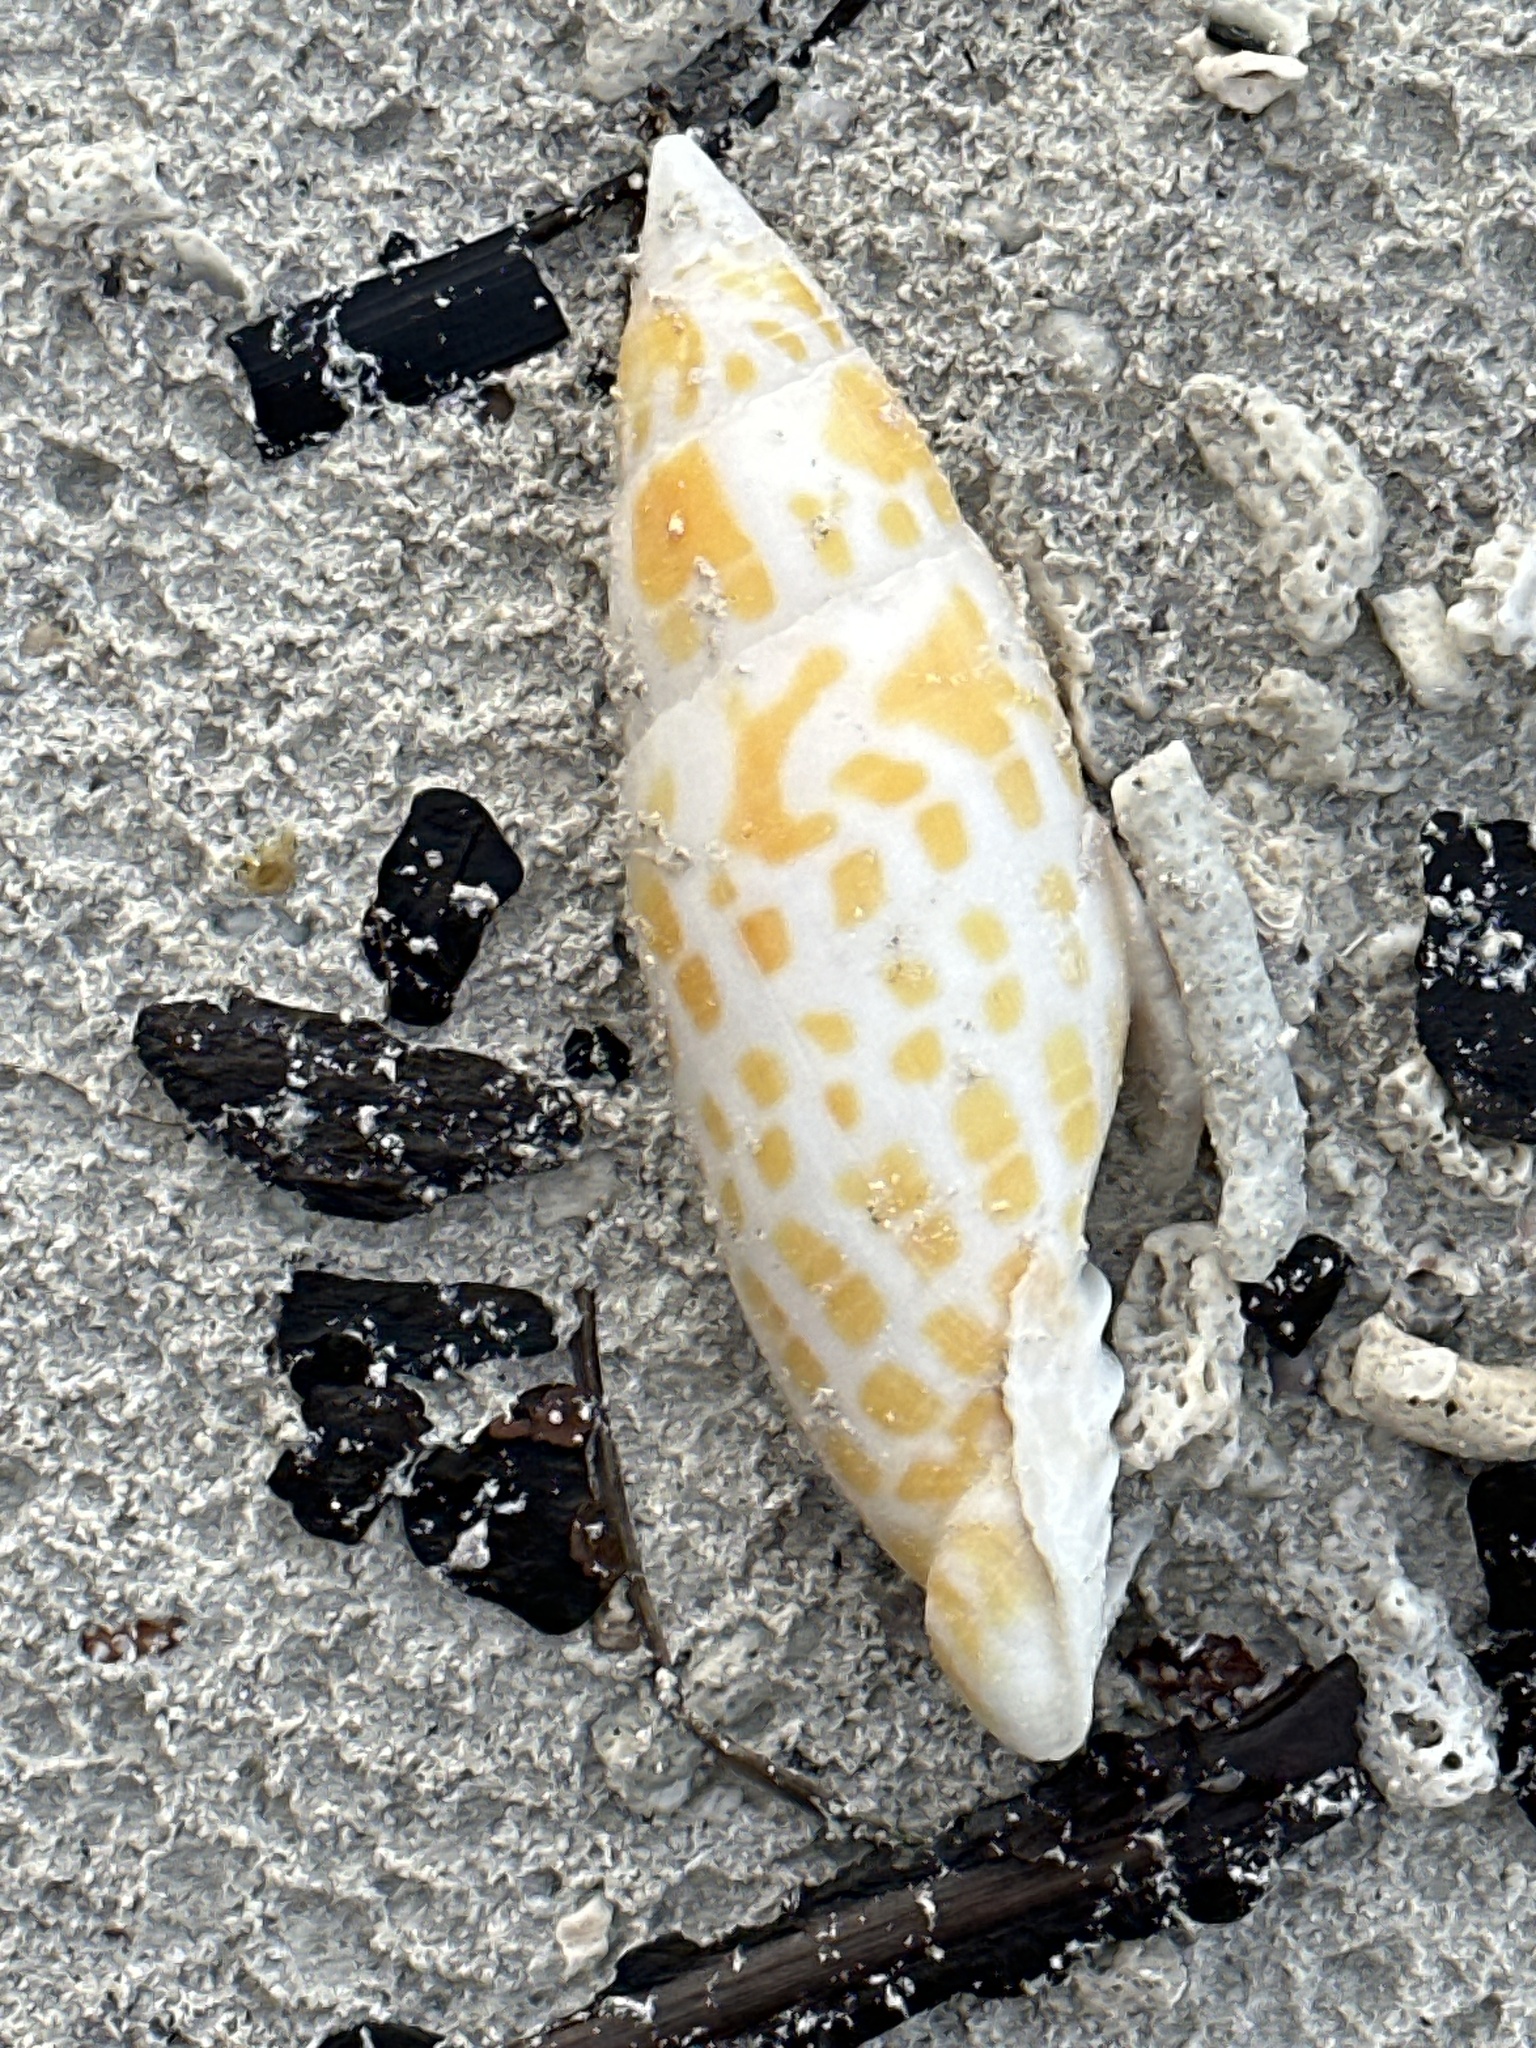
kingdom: Animalia
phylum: Mollusca
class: Gastropoda
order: Neogastropoda
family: Mitridae
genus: Mitra
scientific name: Mitra mitra
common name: Episcopal miter
